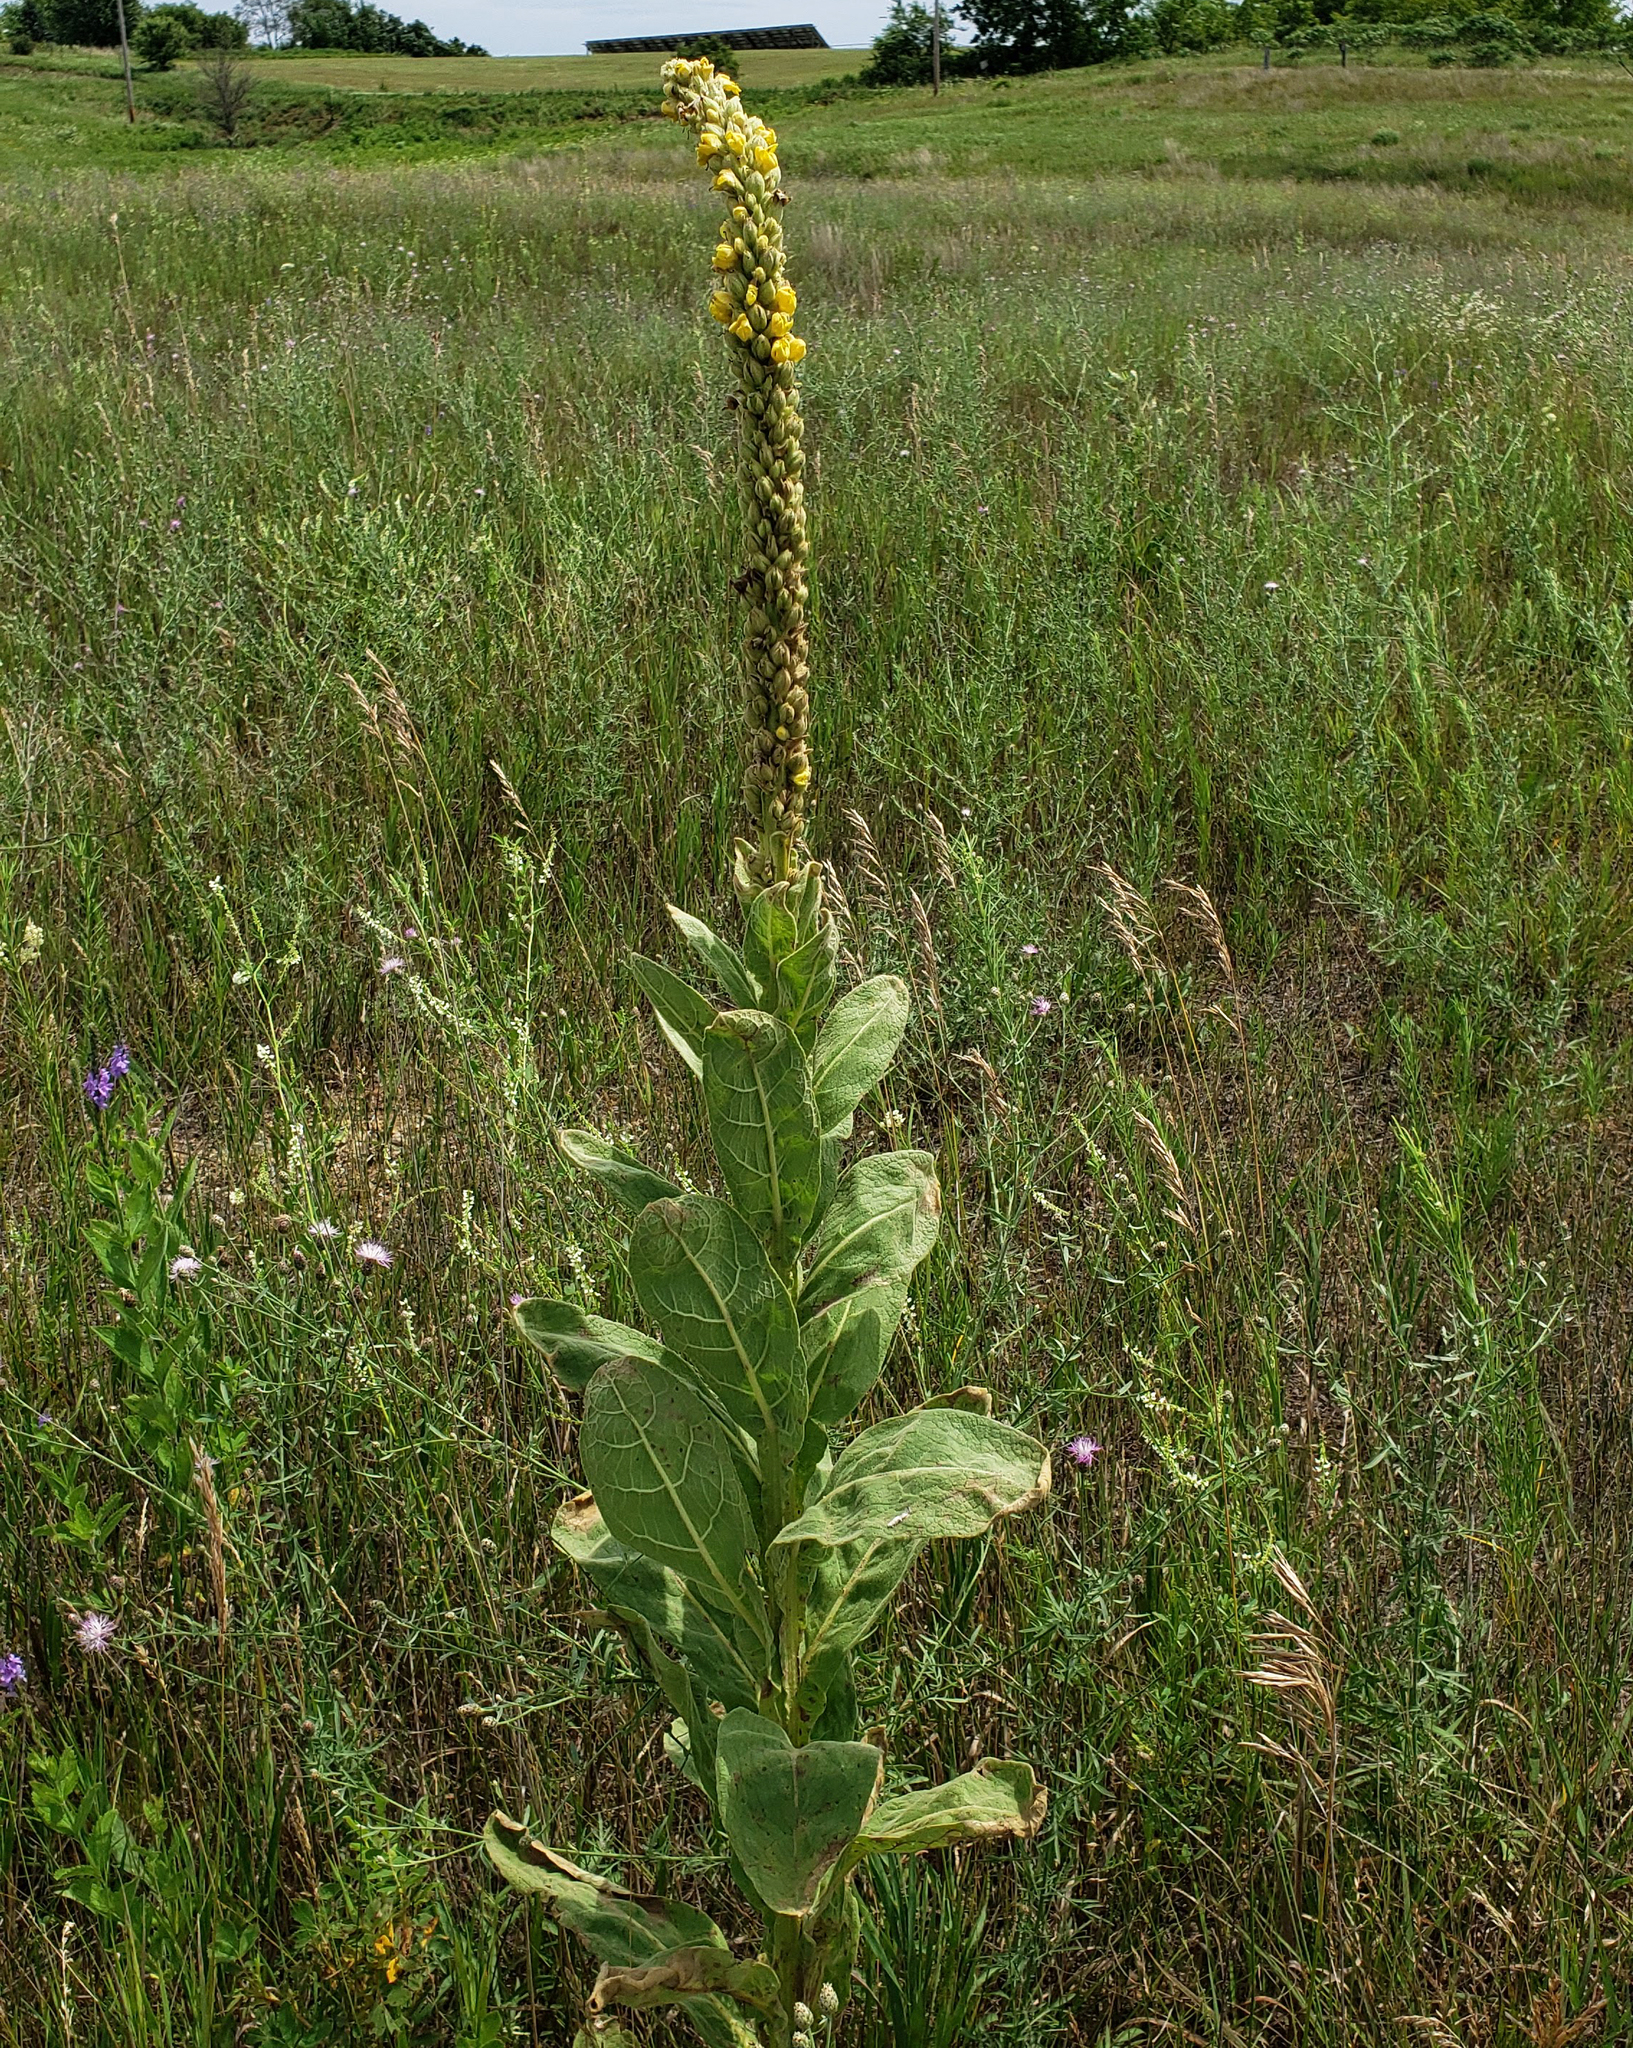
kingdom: Plantae
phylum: Tracheophyta
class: Magnoliopsida
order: Lamiales
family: Scrophulariaceae
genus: Verbascum
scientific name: Verbascum thapsus
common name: Common mullein
